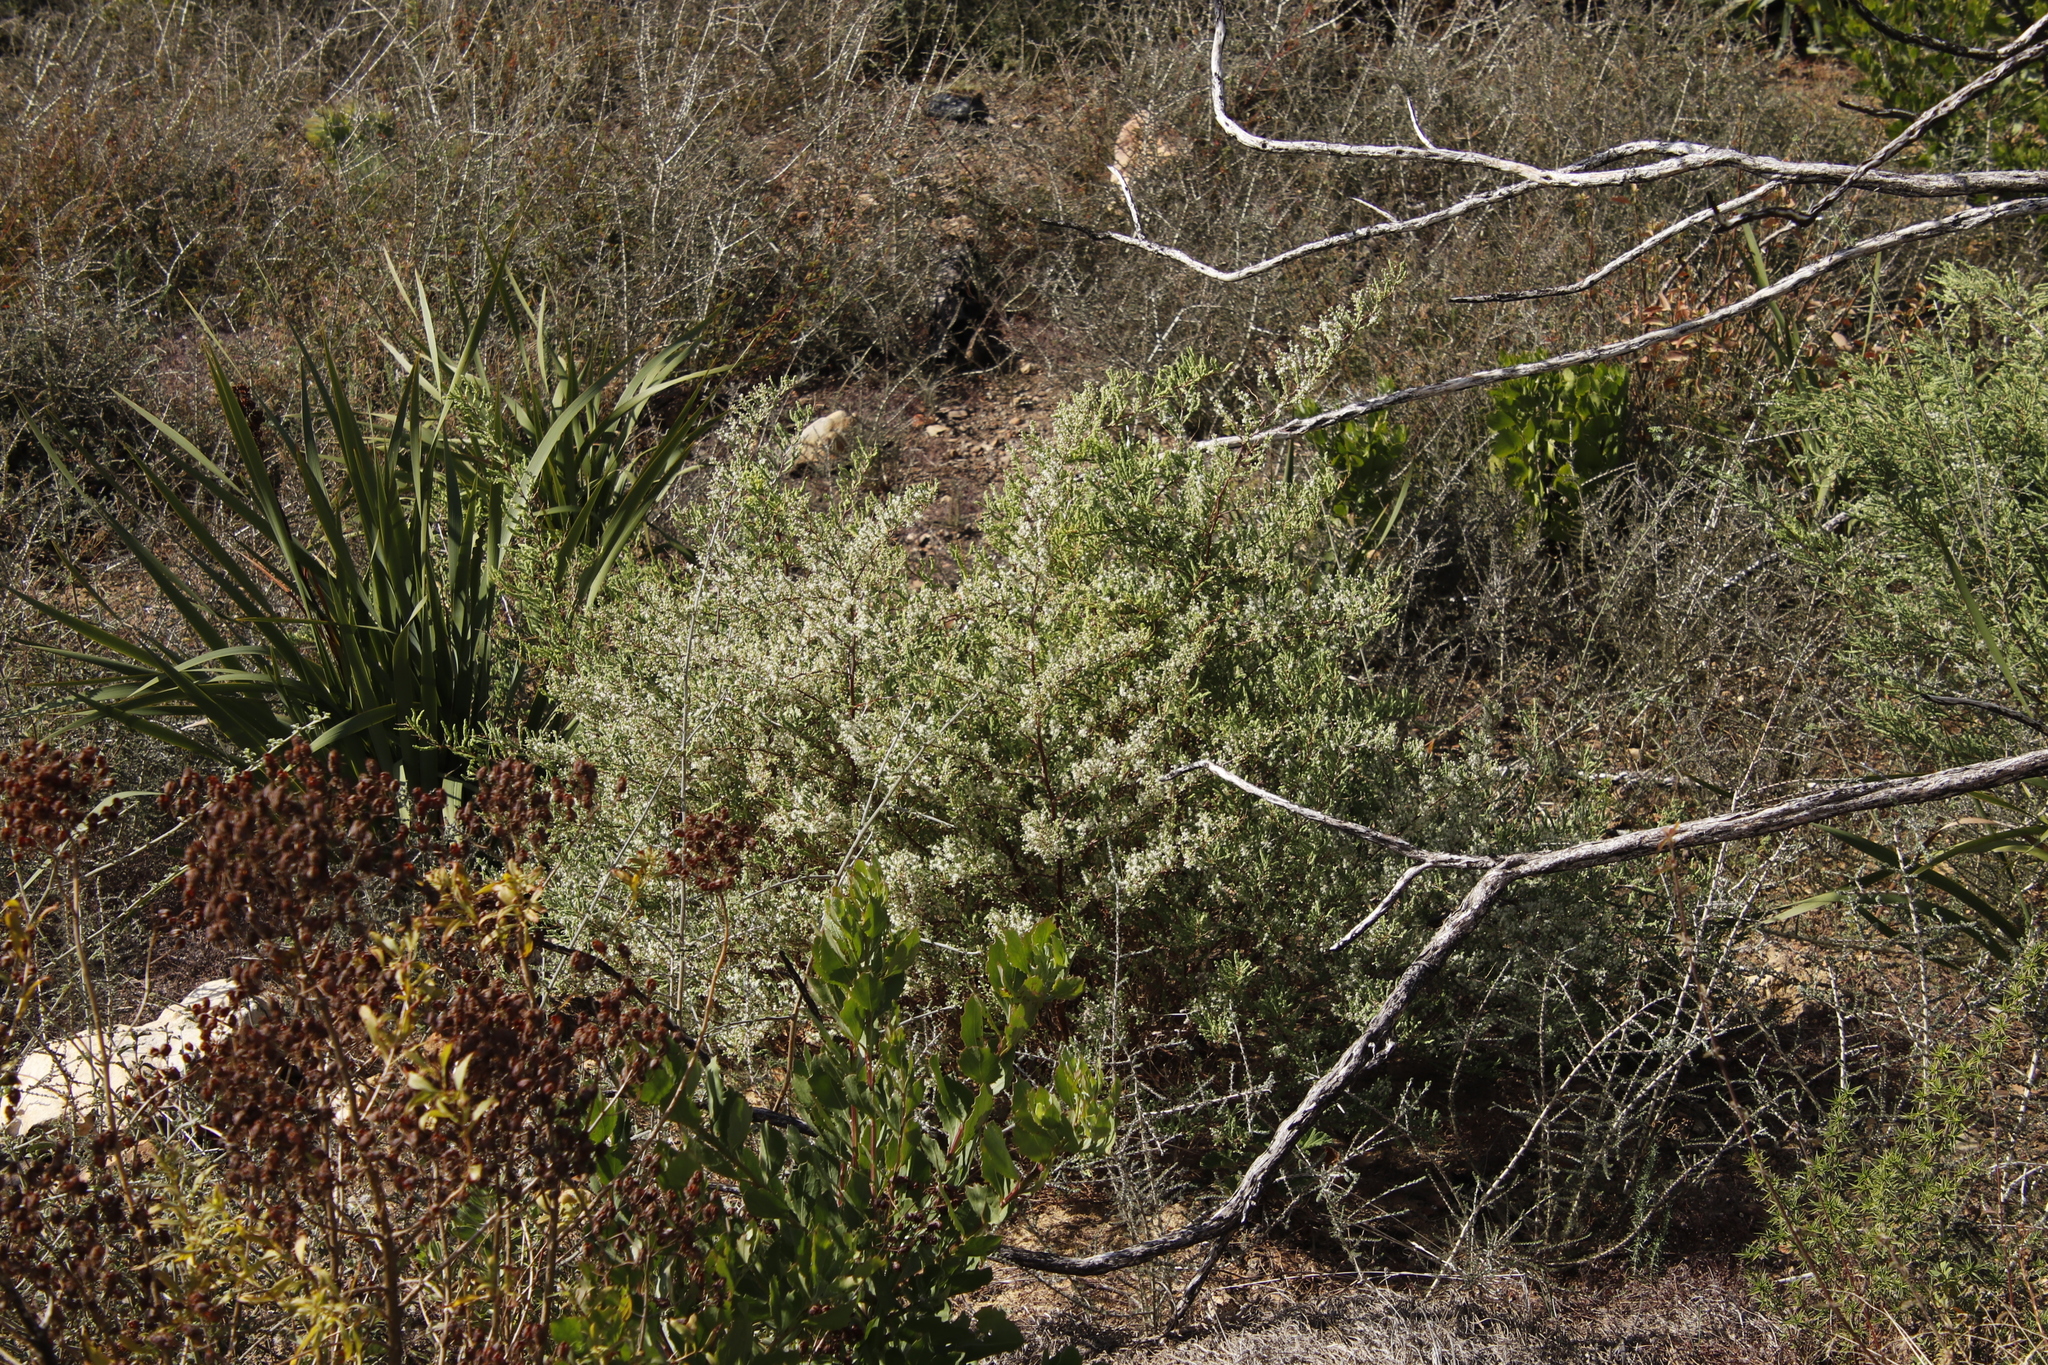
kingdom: Plantae
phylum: Tracheophyta
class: Liliopsida
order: Asparagales
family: Asparagaceae
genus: Asparagus
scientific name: Asparagus rubicundus
